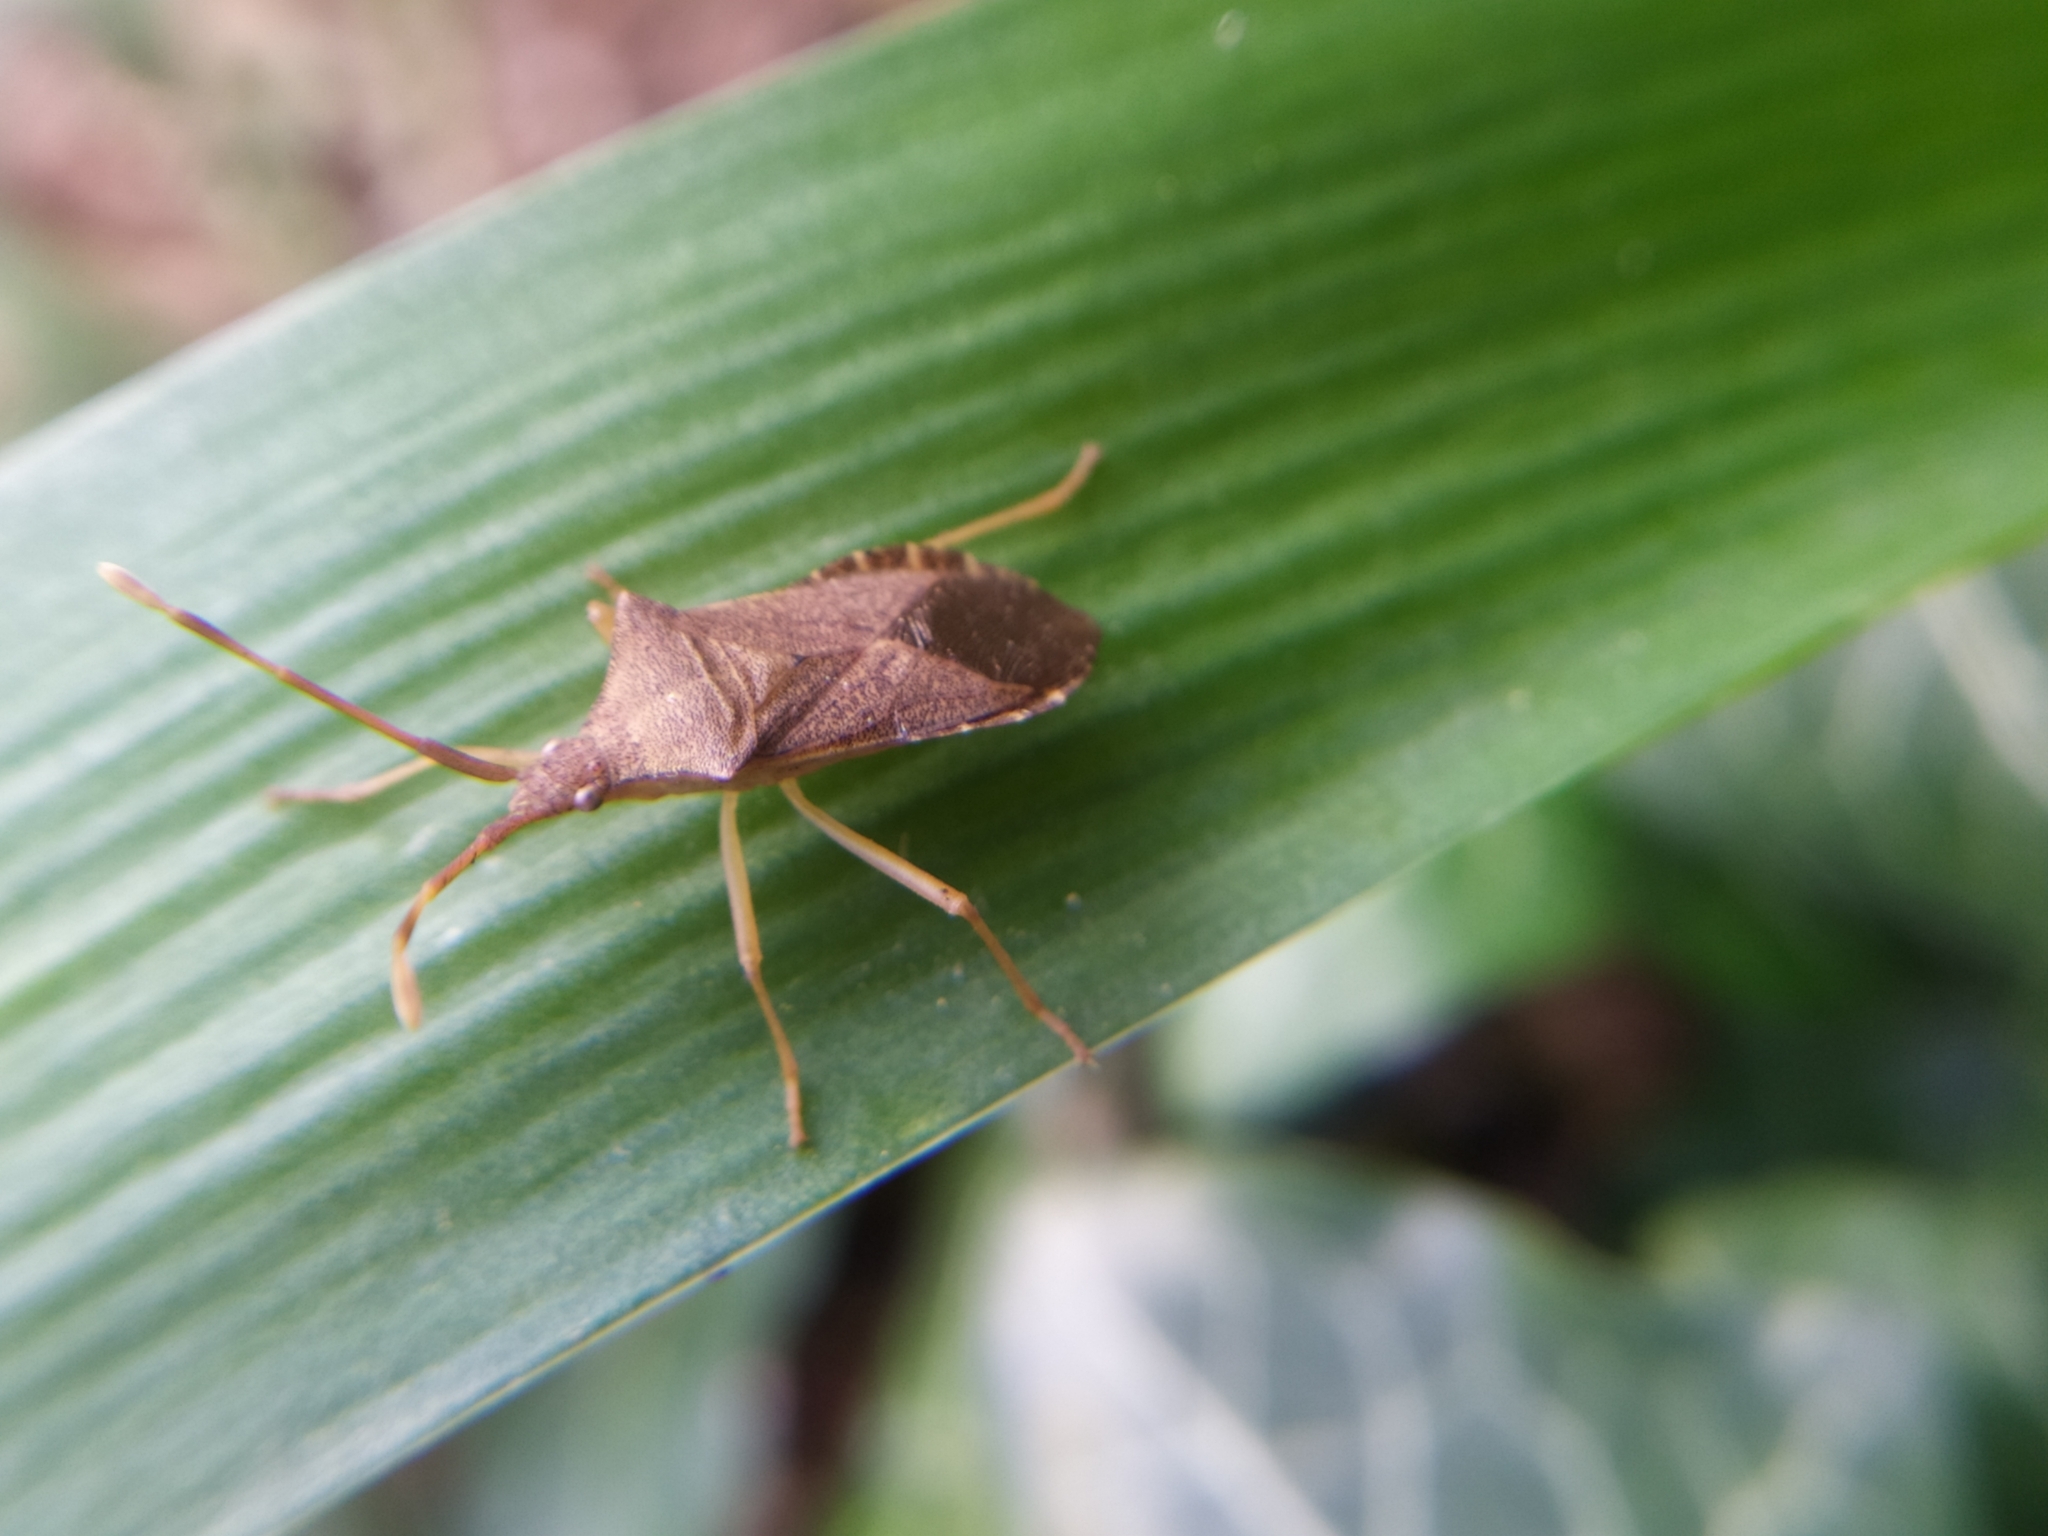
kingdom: Animalia
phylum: Arthropoda
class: Insecta
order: Hemiptera
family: Coreidae
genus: Gonocerus
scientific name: Gonocerus acuteangulatus
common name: Box bug
